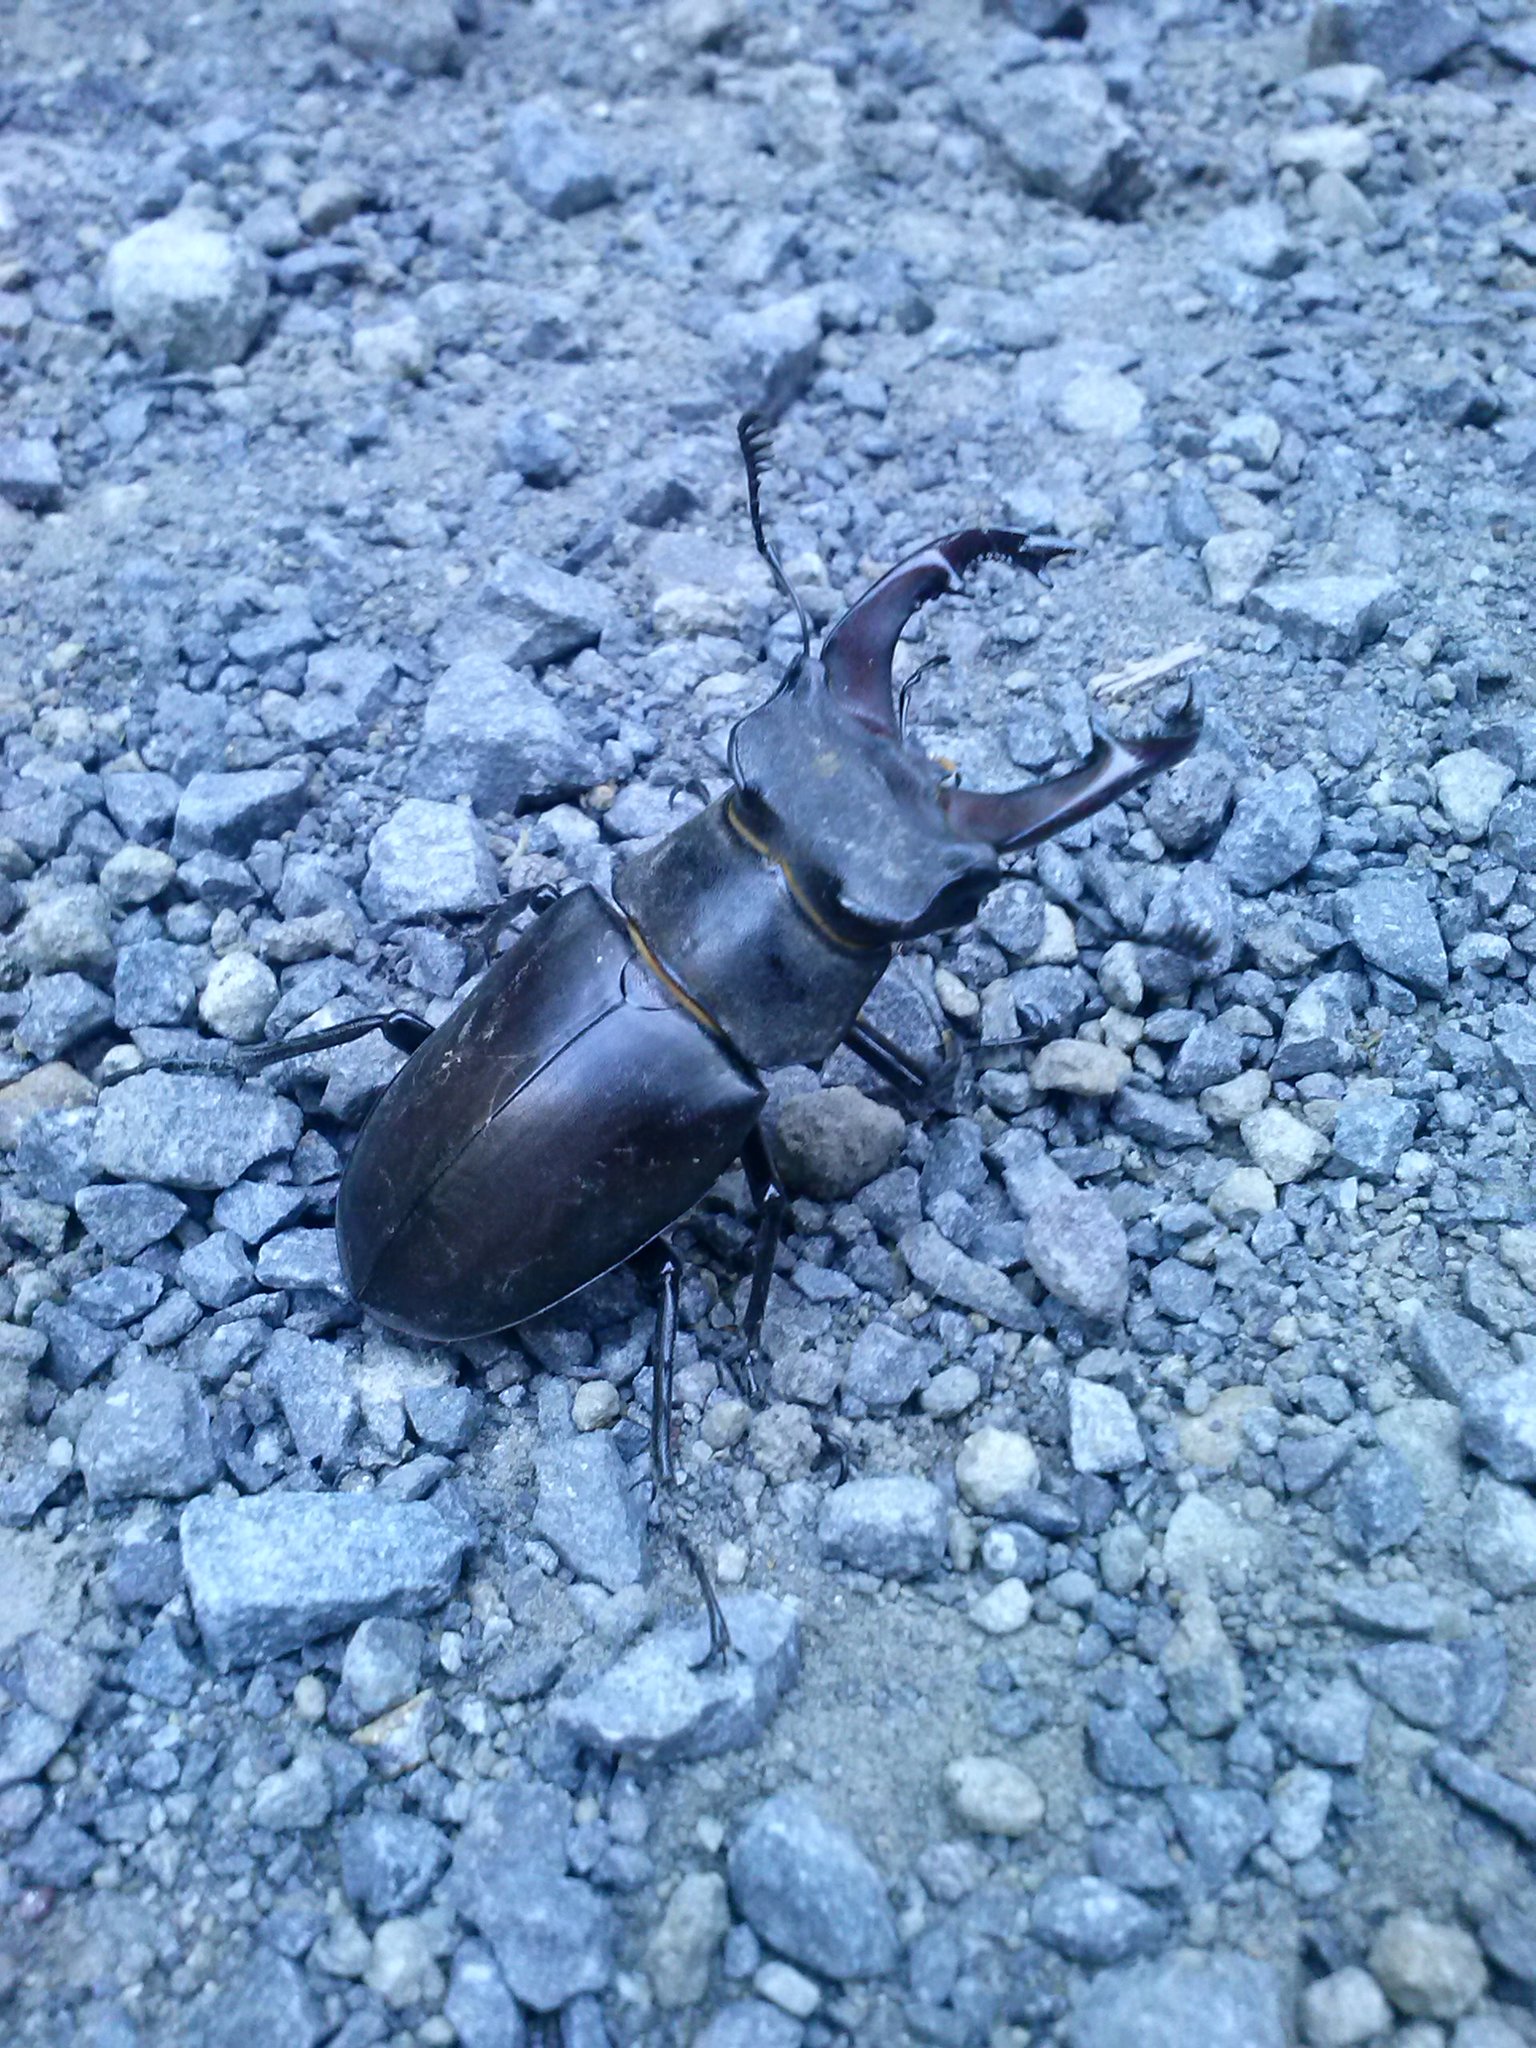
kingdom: Animalia
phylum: Arthropoda
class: Insecta
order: Coleoptera
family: Lucanidae
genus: Lucanus
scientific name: Lucanus cervus
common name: Stag beetle
